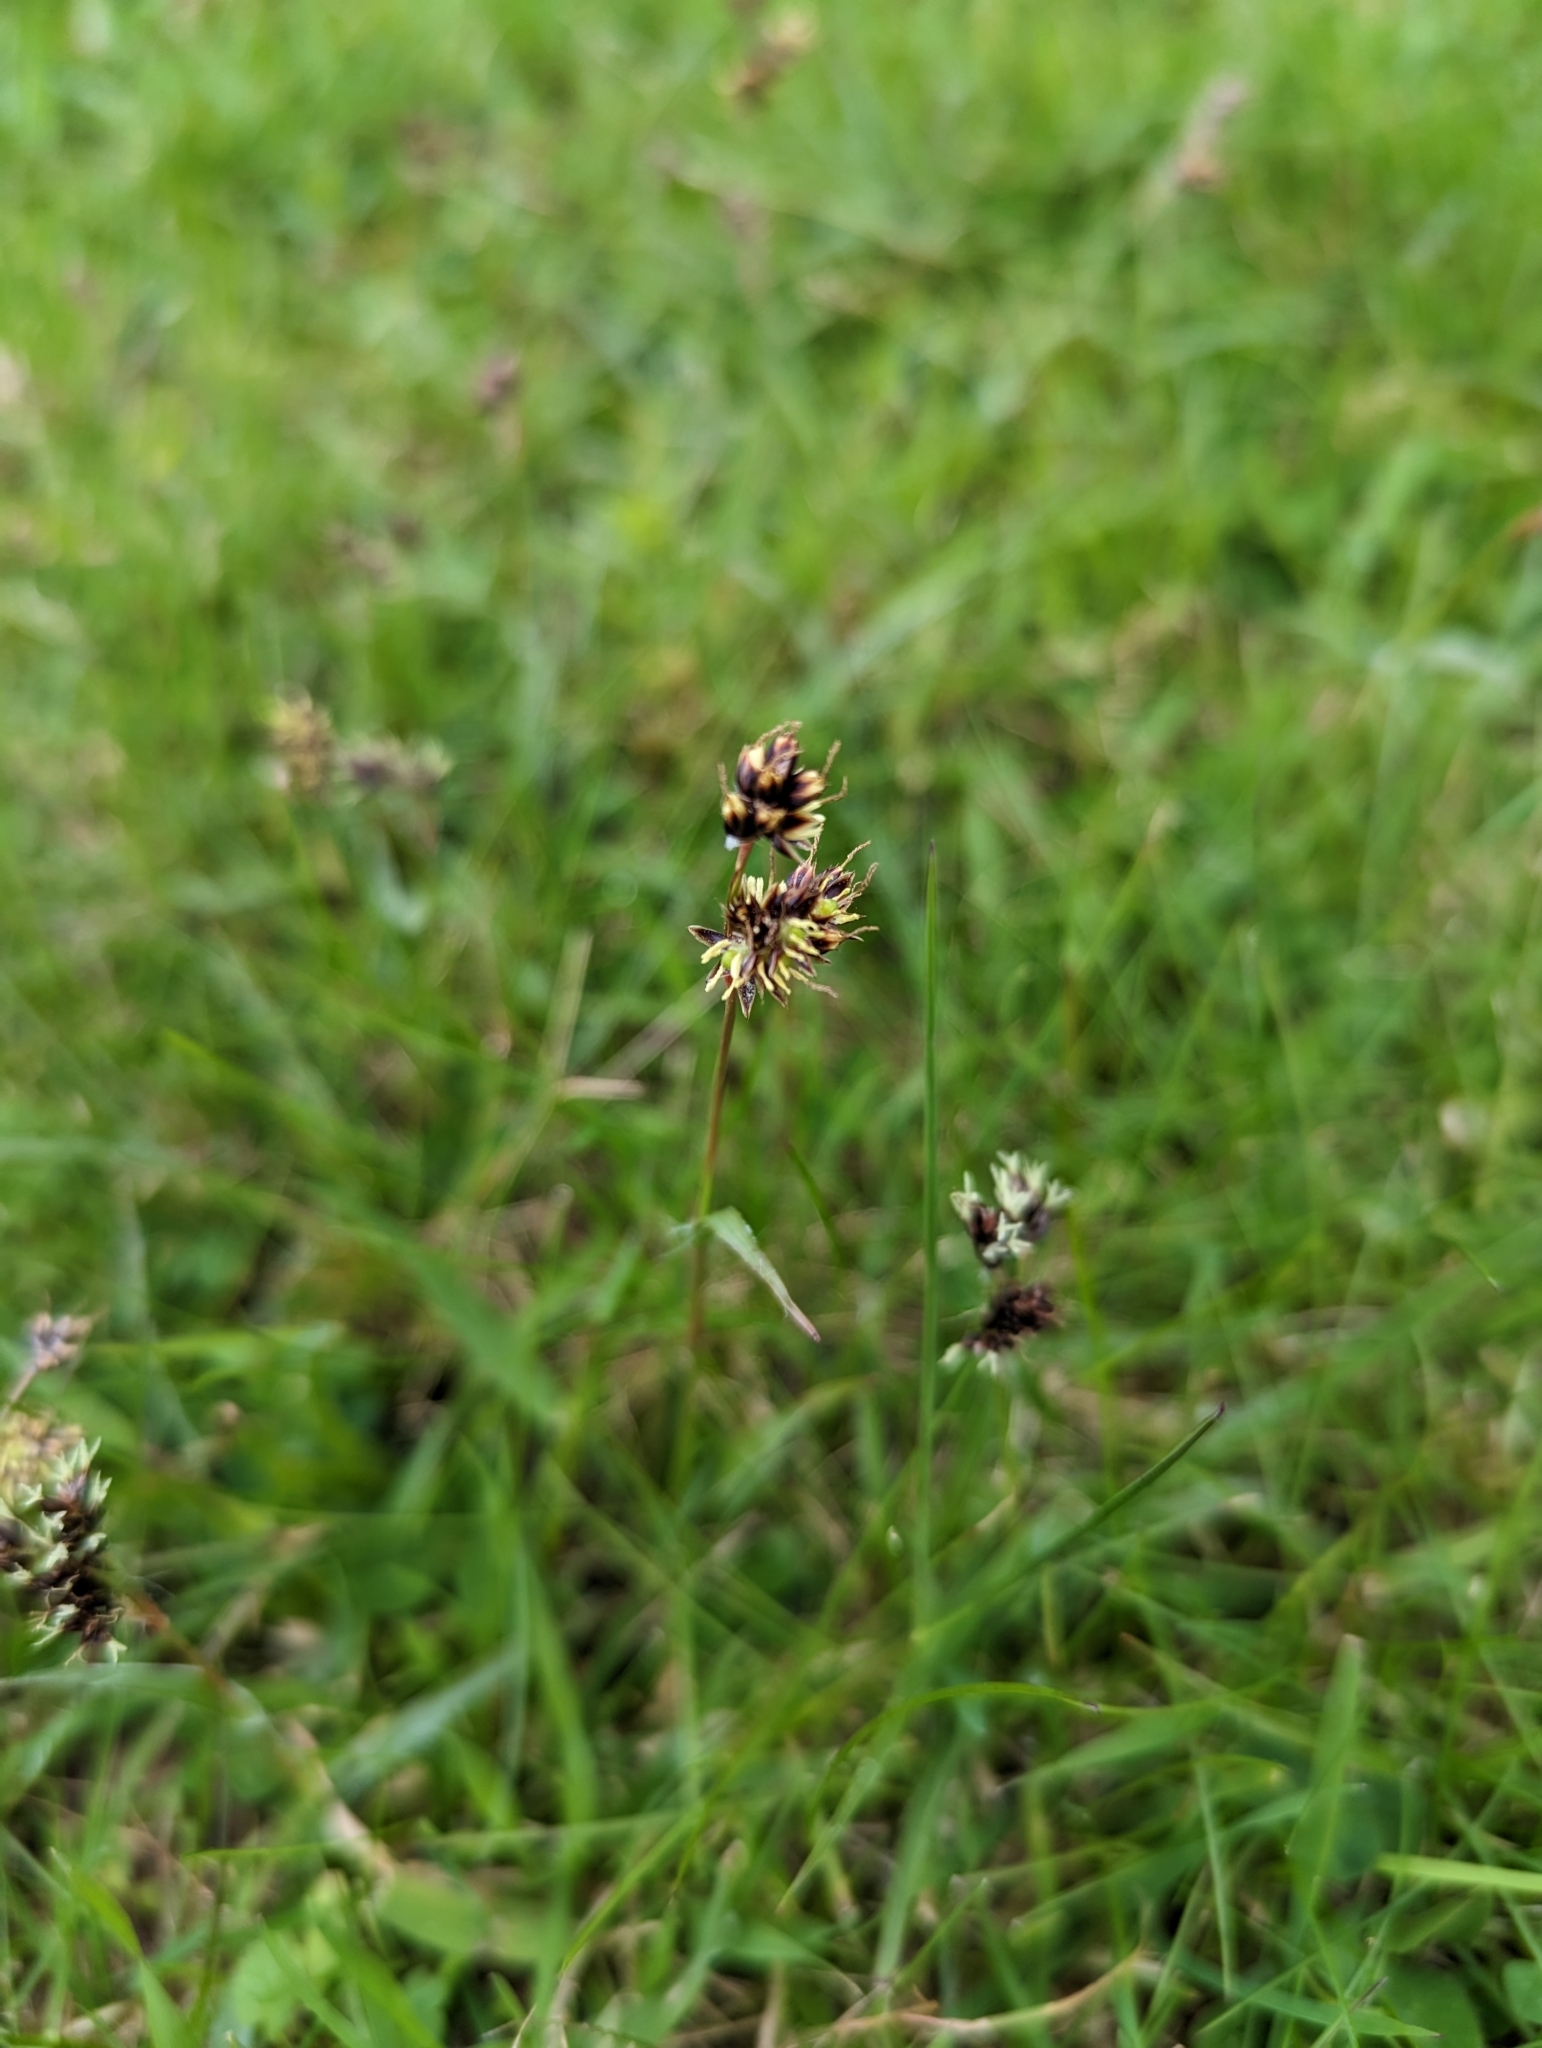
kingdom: Plantae
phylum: Tracheophyta
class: Liliopsida
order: Poales
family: Juncaceae
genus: Luzula
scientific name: Luzula campestris
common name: Field wood-rush
